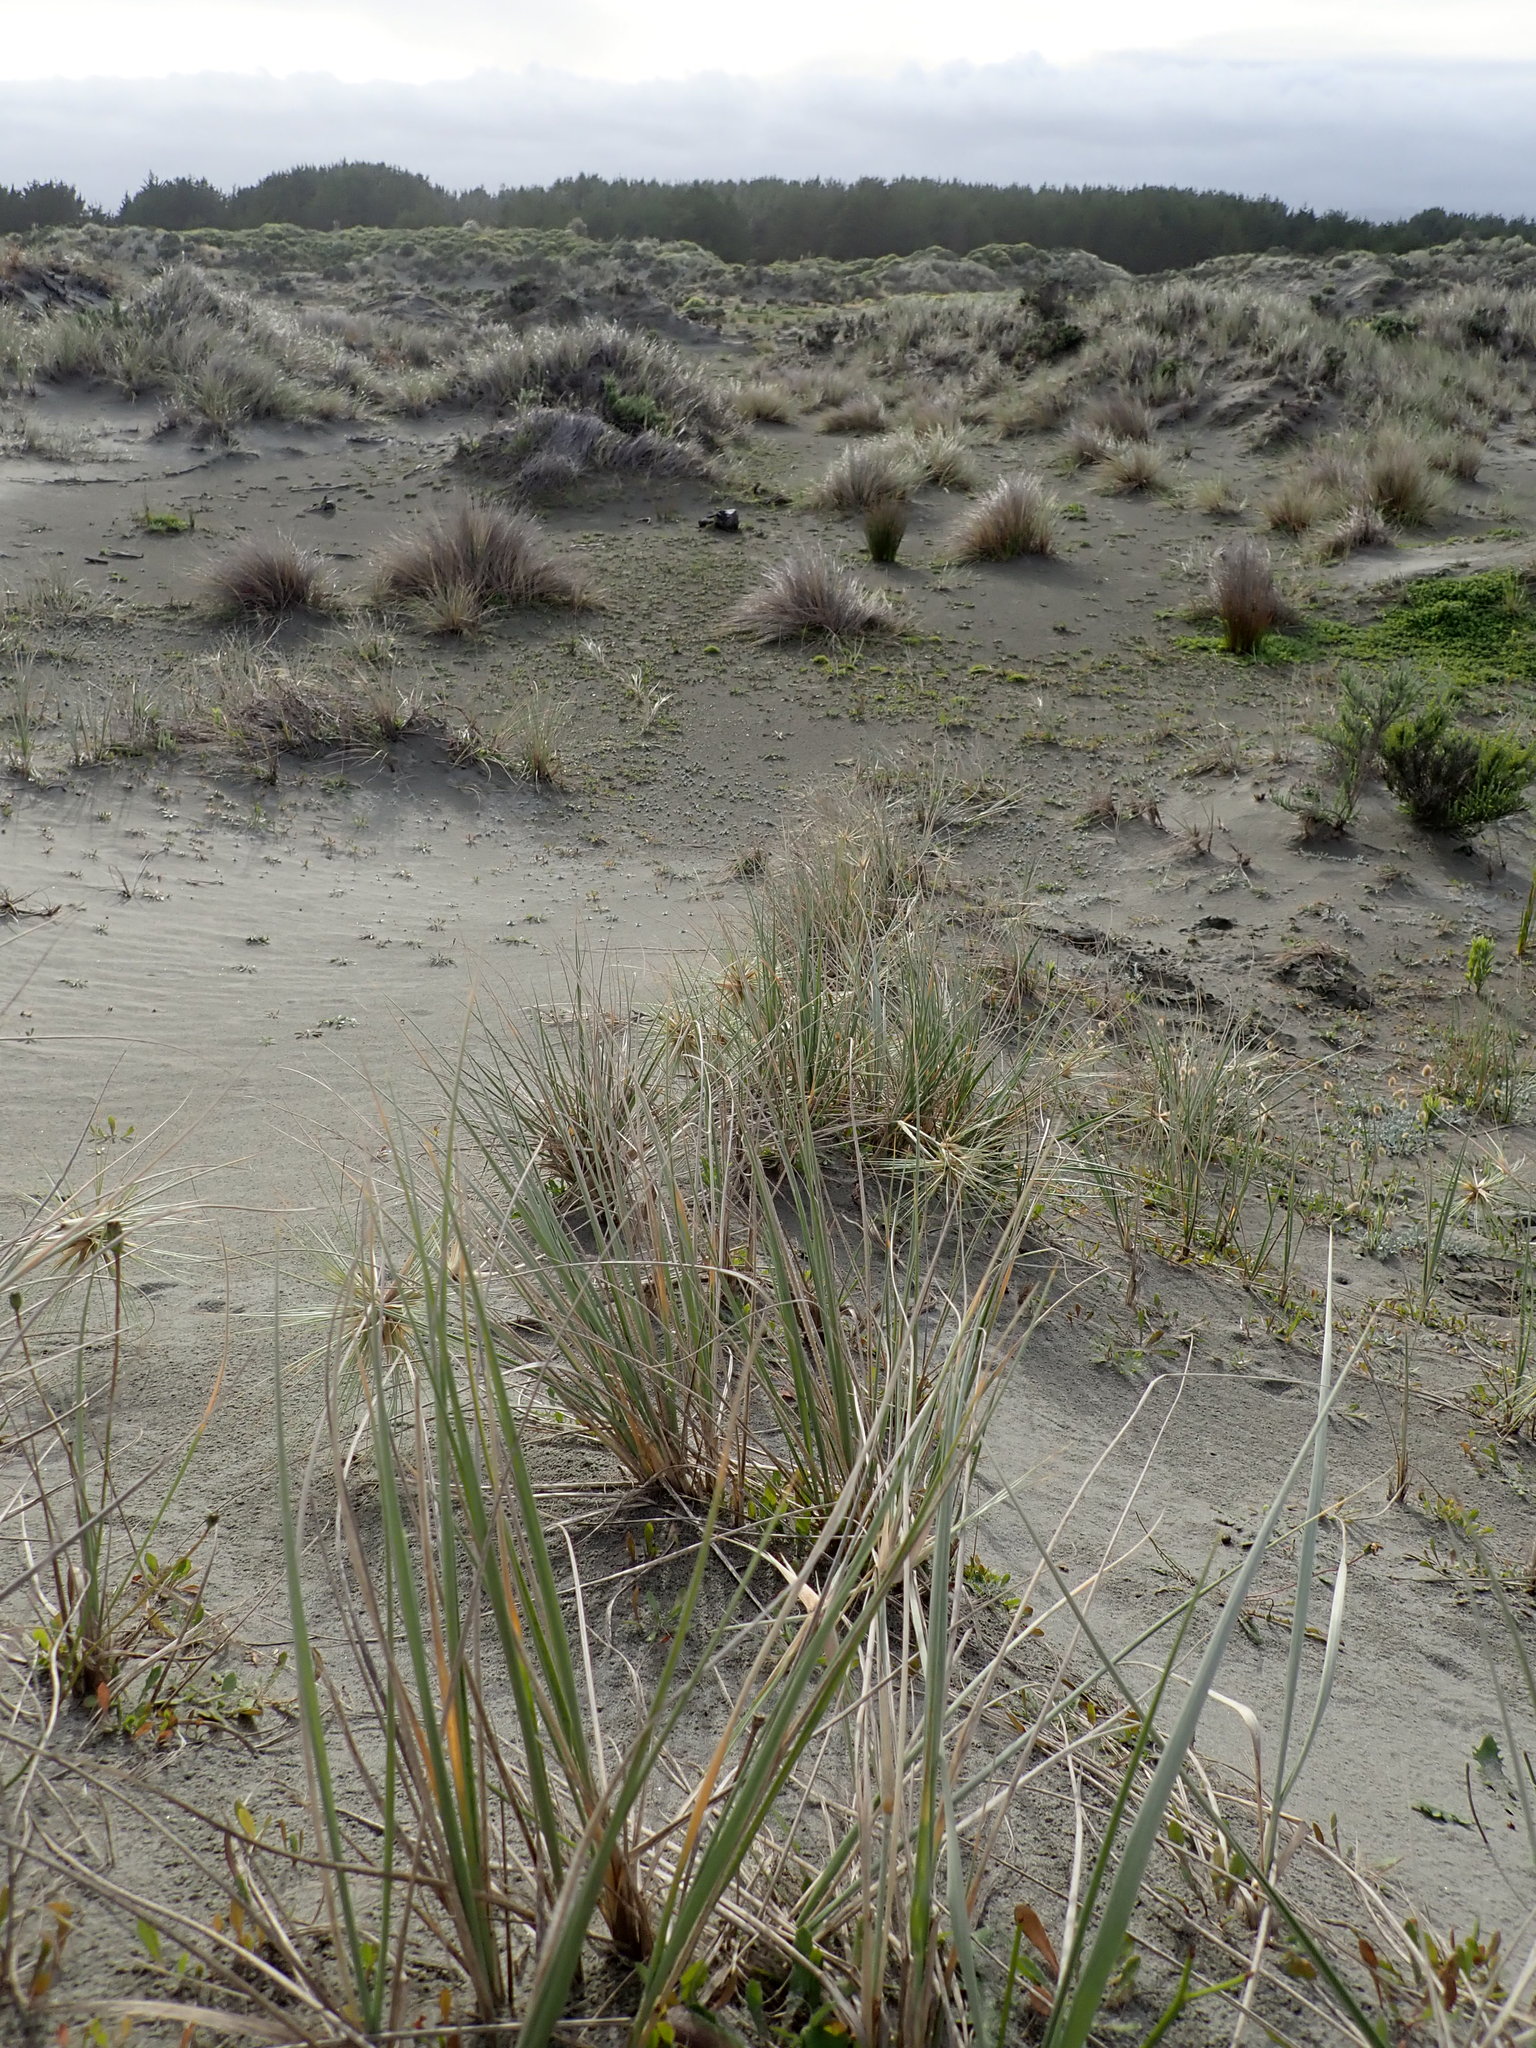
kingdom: Plantae
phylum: Tracheophyta
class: Liliopsida
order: Poales
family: Poaceae
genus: Spinifex
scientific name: Spinifex sericeus
